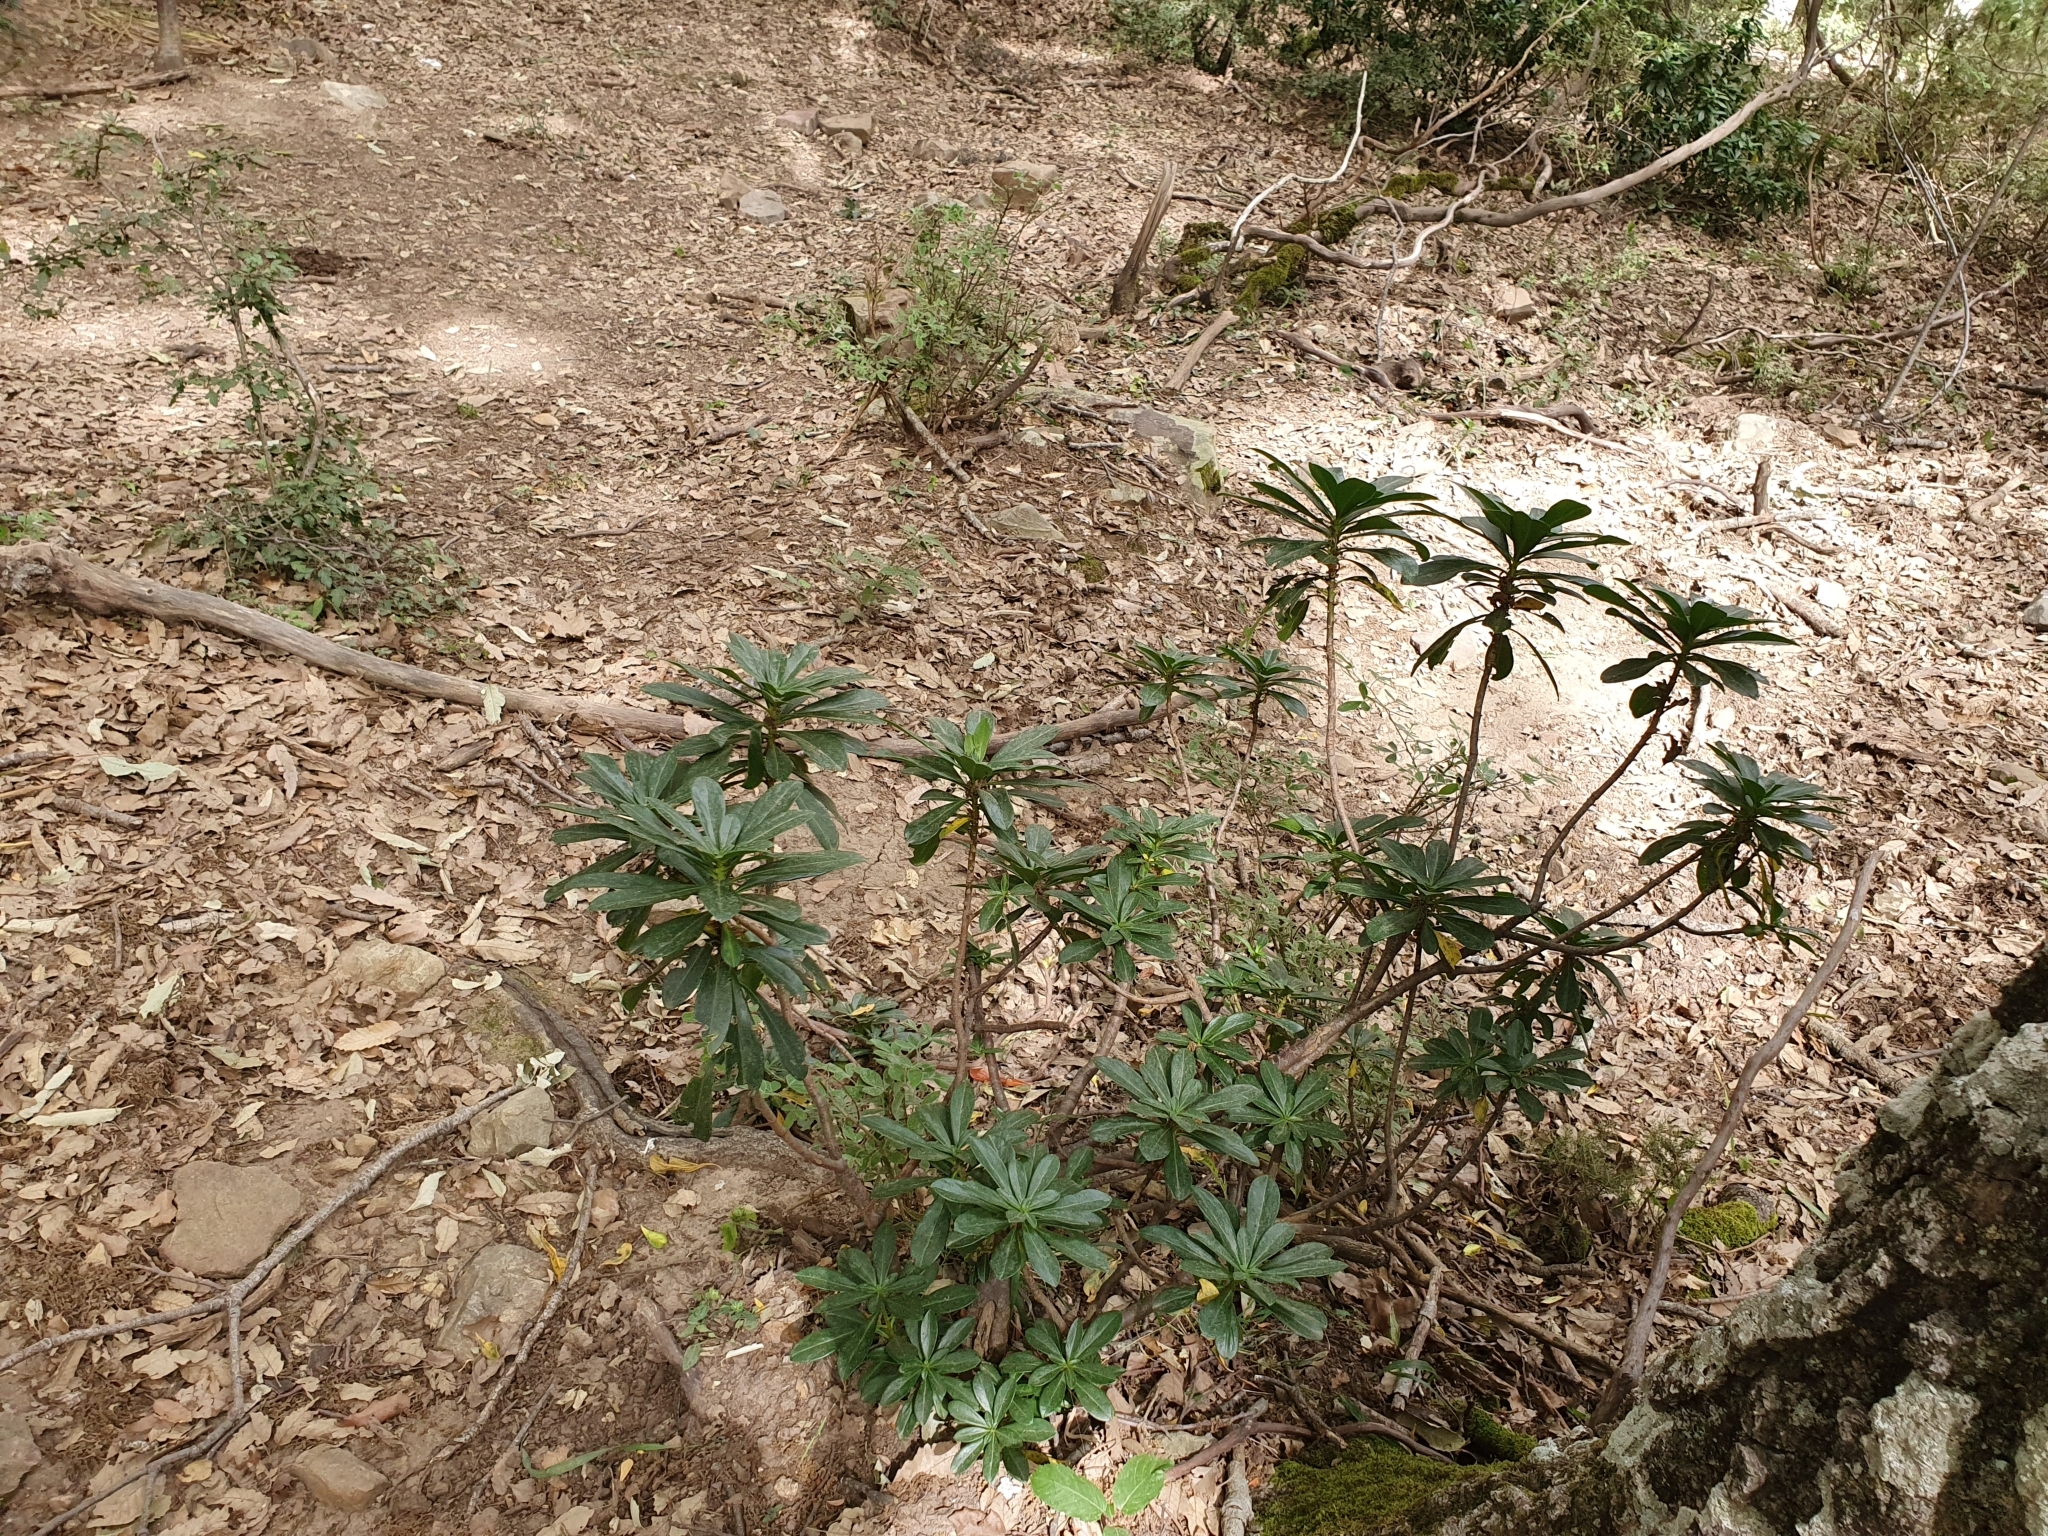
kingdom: Plantae
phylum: Tracheophyta
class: Magnoliopsida
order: Malvales
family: Thymelaeaceae
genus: Daphne
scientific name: Daphne laureola
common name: Spurge-laurel
